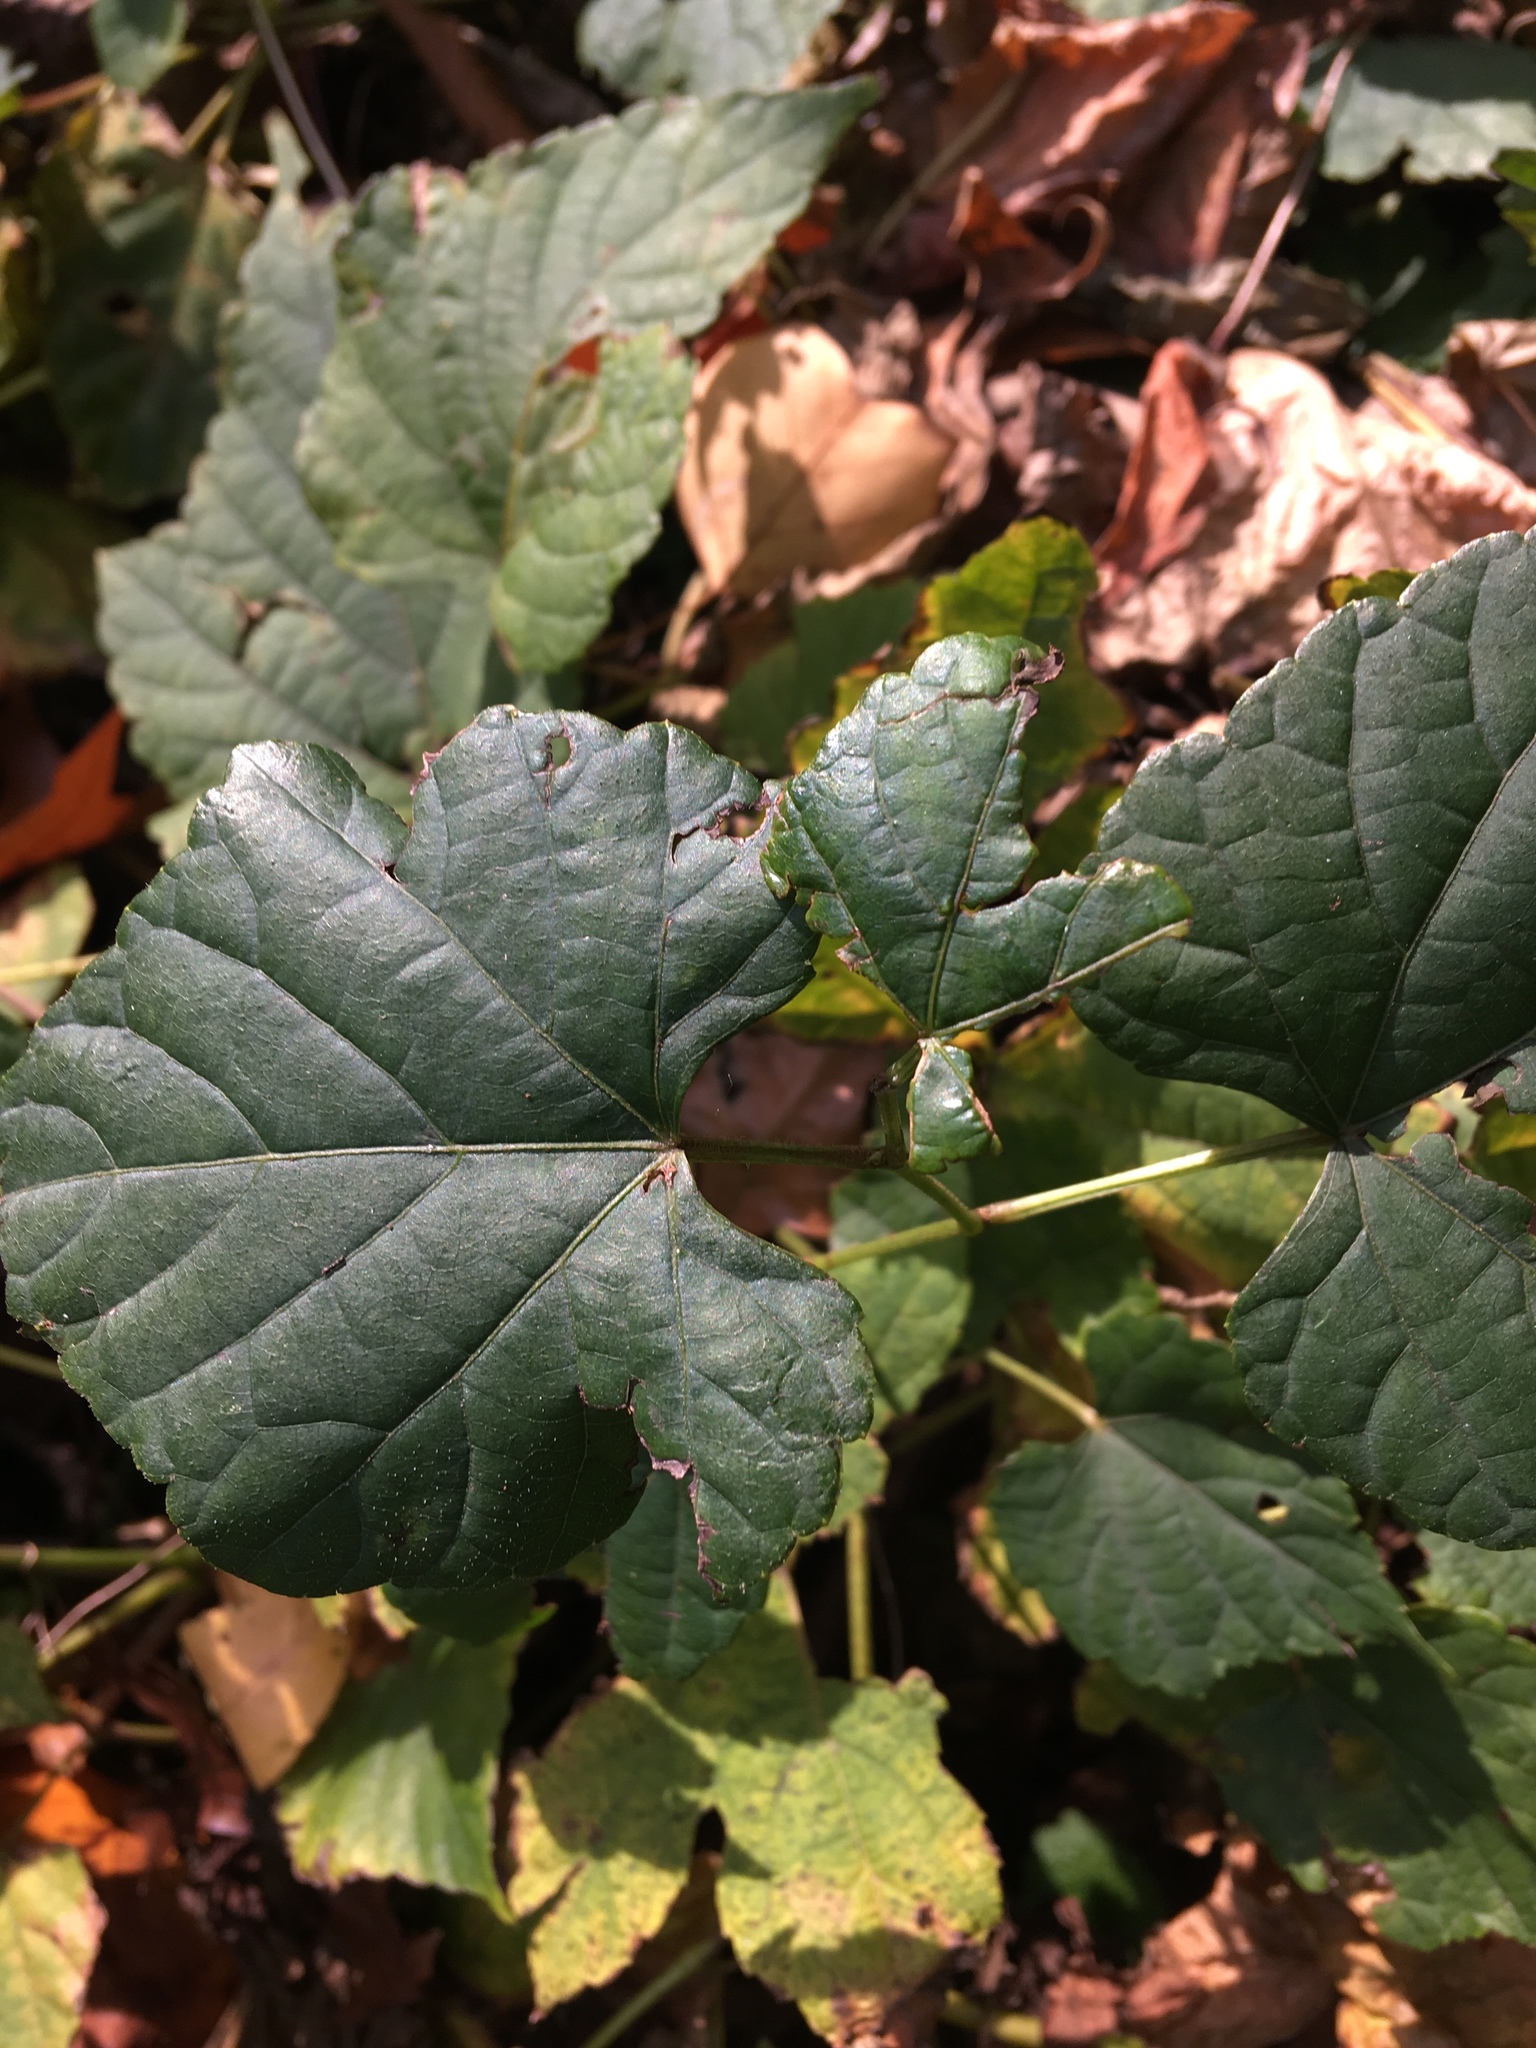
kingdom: Plantae
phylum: Tracheophyta
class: Magnoliopsida
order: Vitales
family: Vitaceae
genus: Ampelopsis
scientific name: Ampelopsis glandulosa
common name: Amur peppervine
